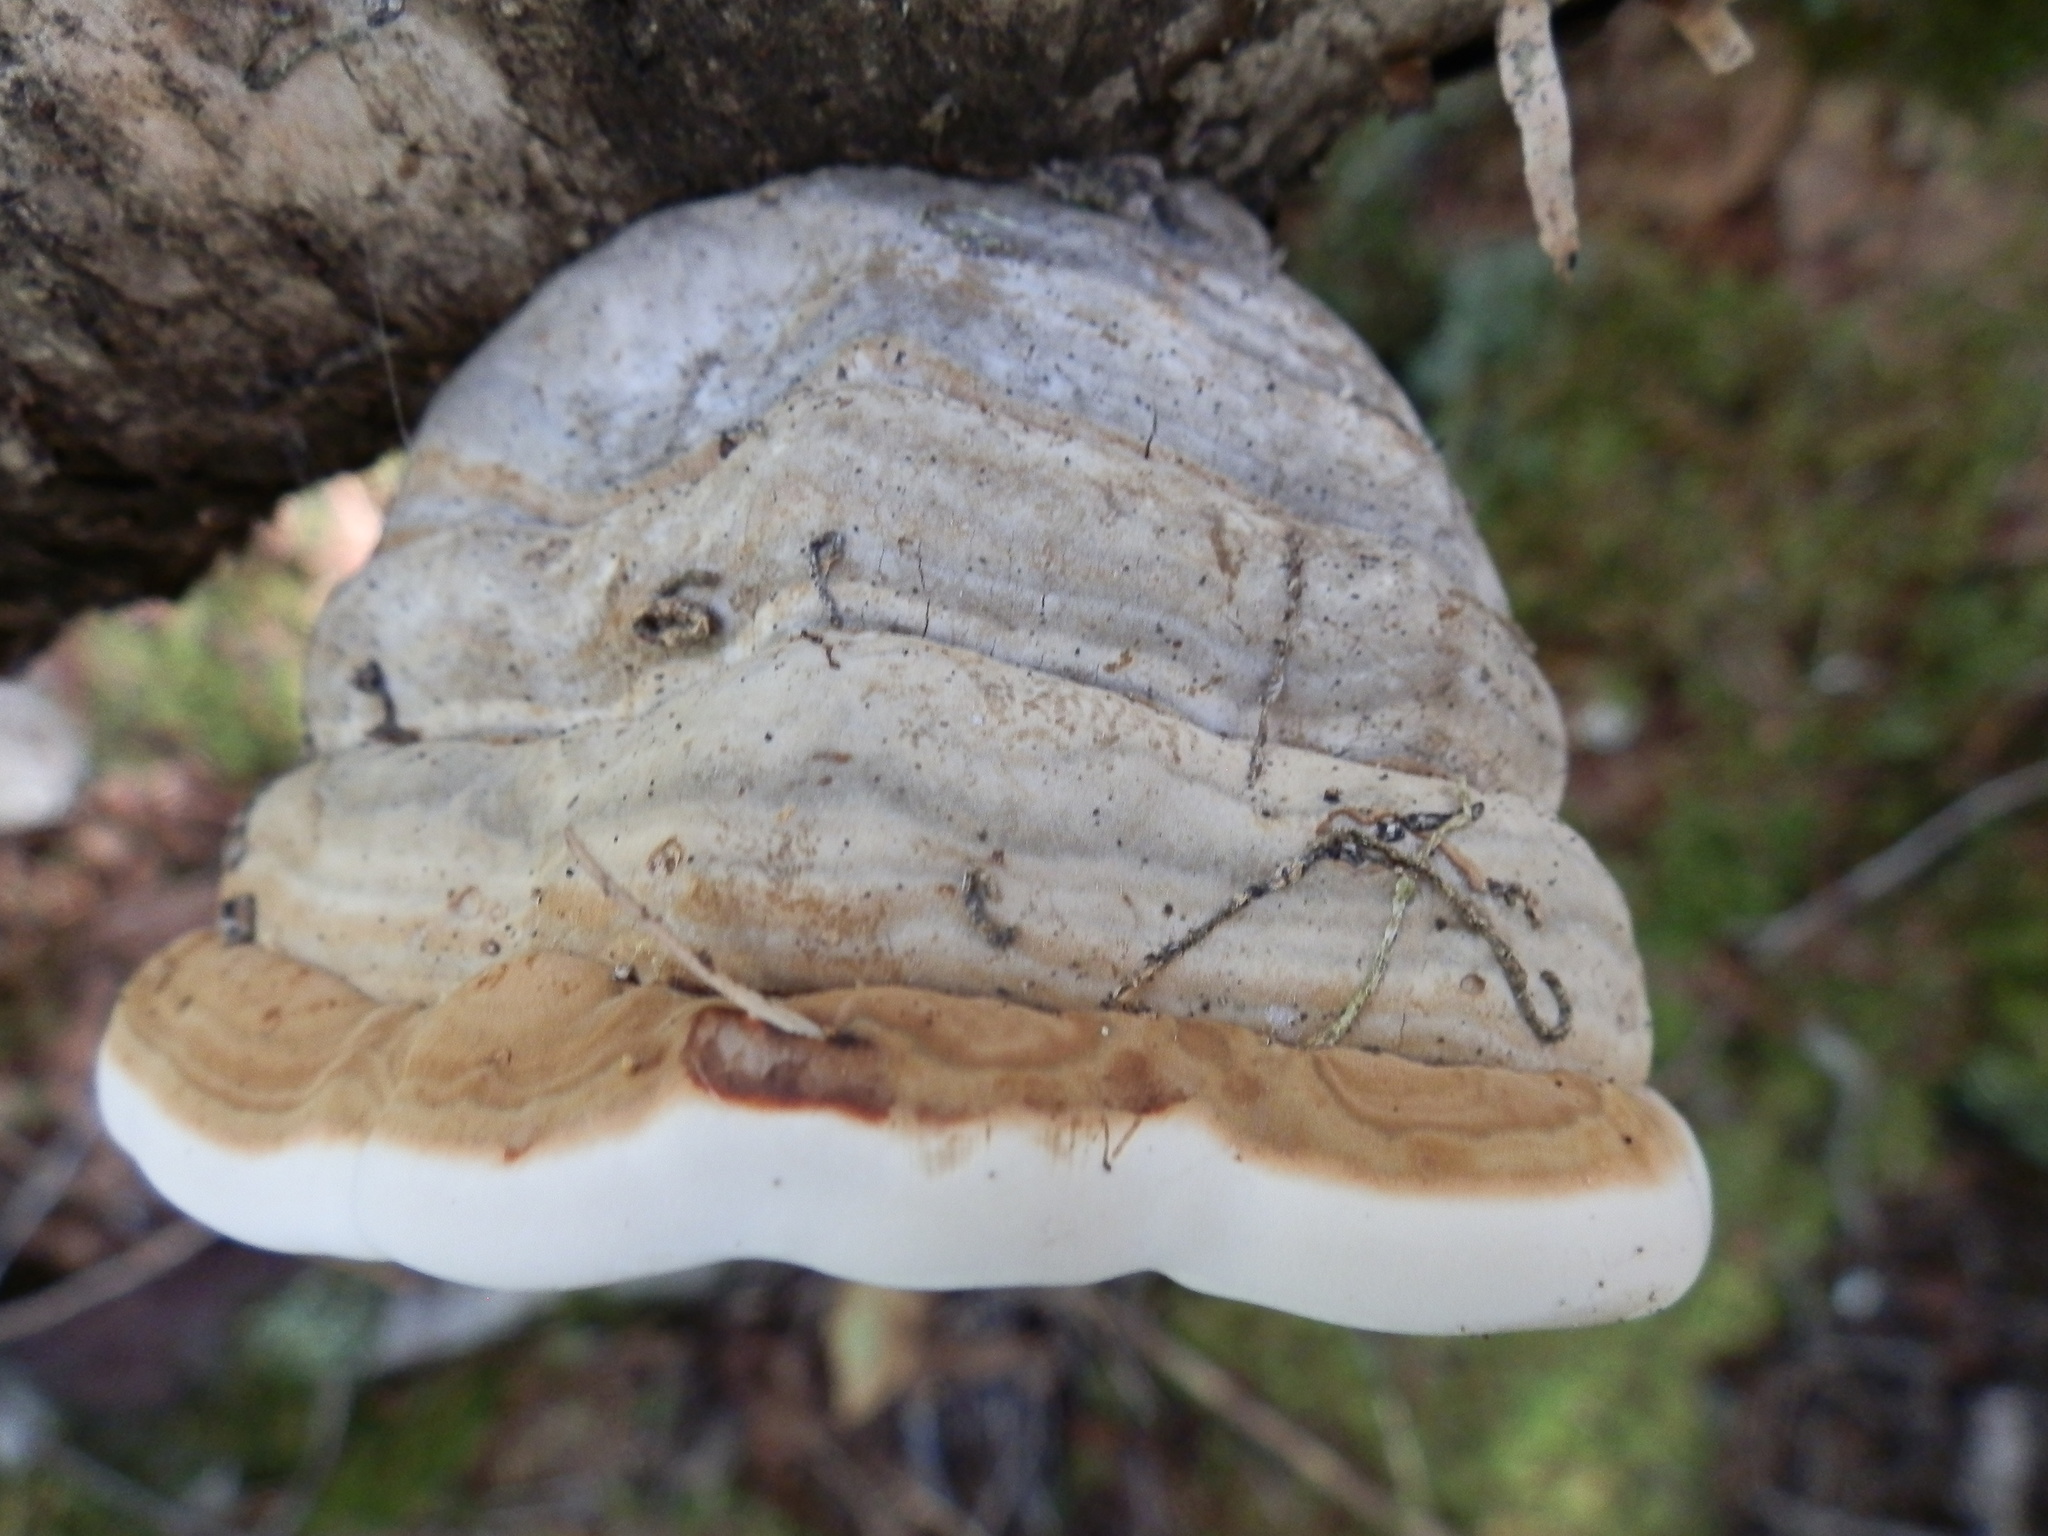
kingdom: Fungi
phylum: Basidiomycota
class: Agaricomycetes
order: Polyporales
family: Polyporaceae
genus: Fomes
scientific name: Fomes fomentarius
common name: Hoof fungus
